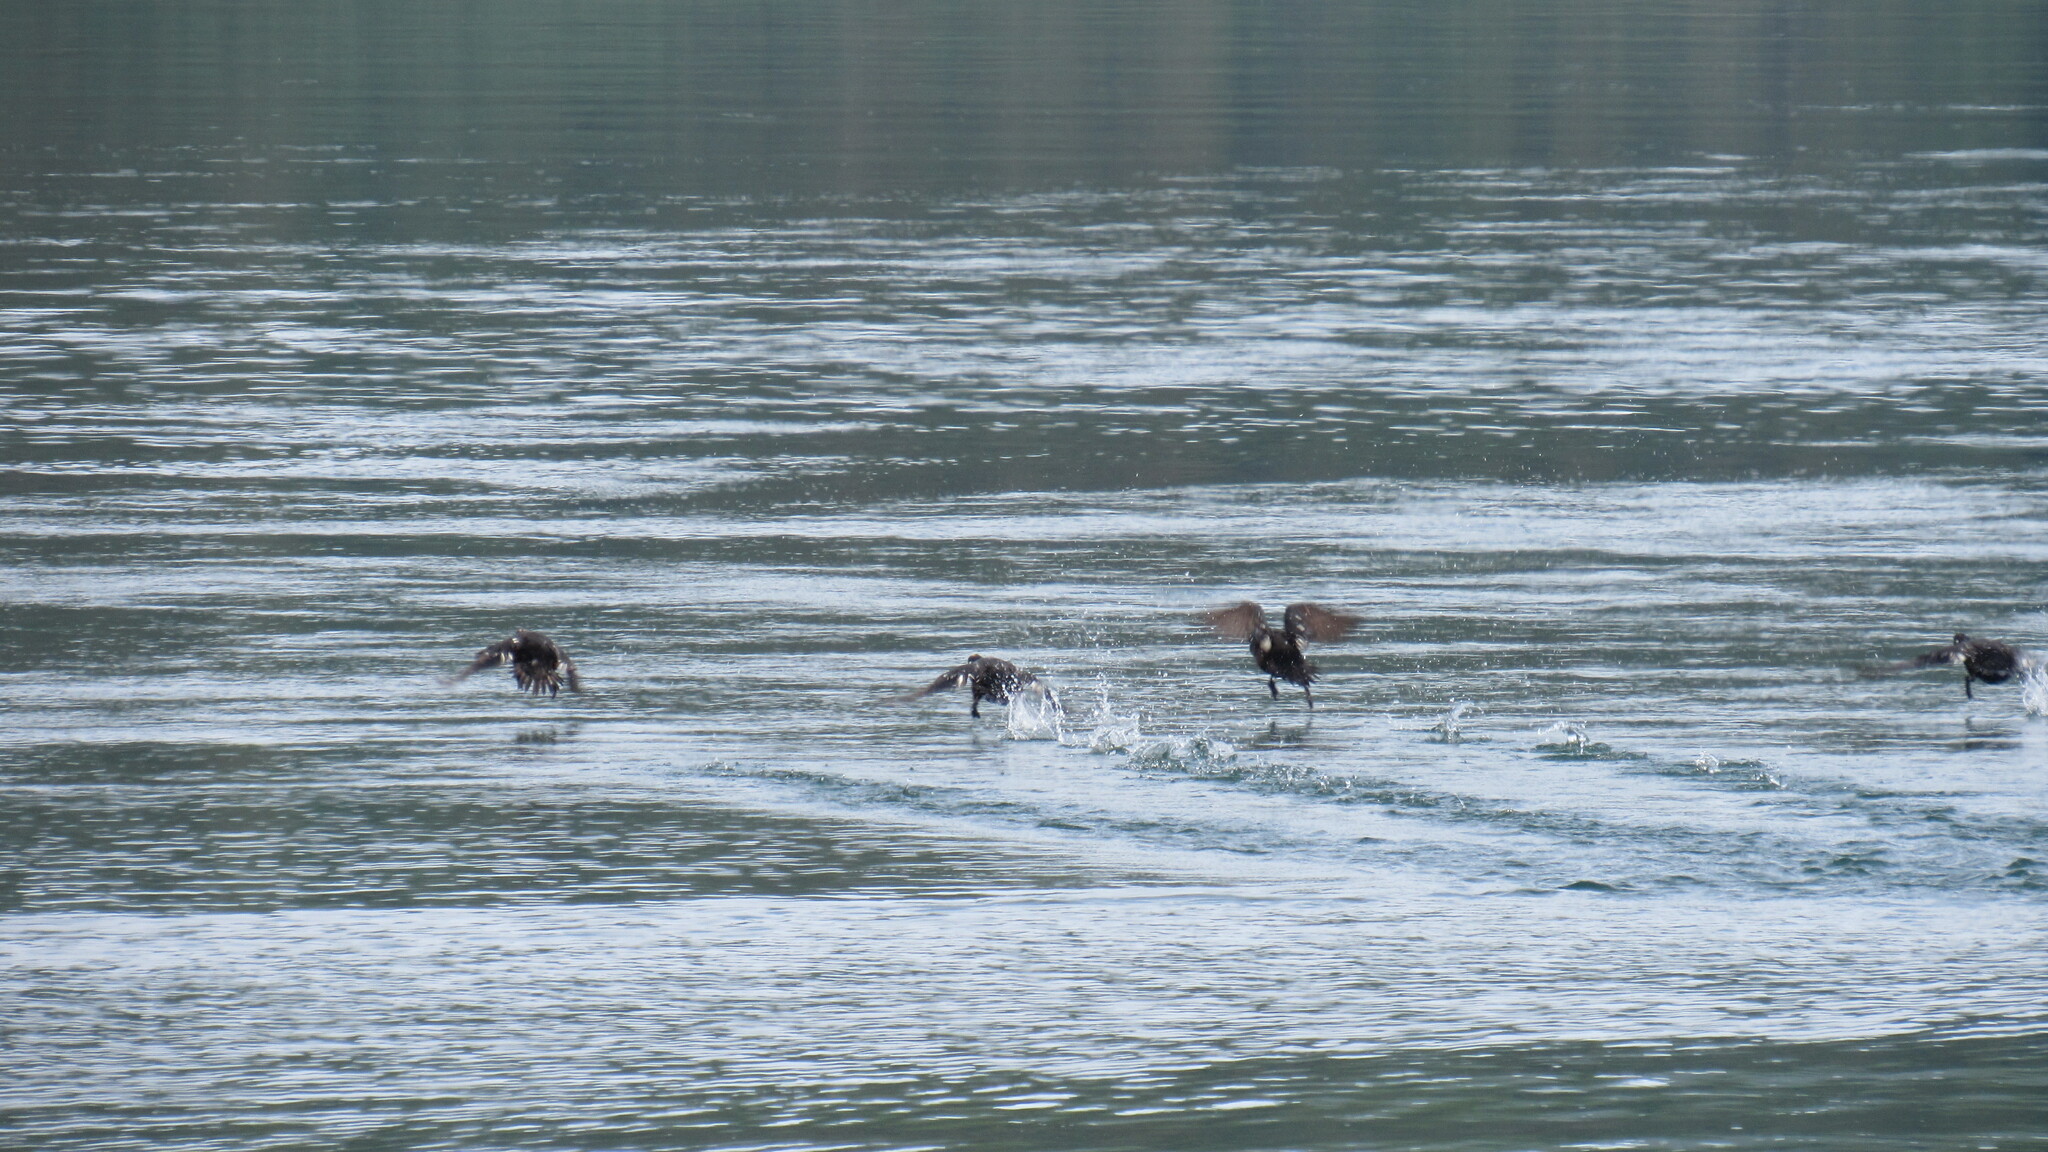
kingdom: Animalia
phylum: Chordata
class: Aves
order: Anseriformes
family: Anatidae
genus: Histrionicus
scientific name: Histrionicus histrionicus
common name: Harlequin duck
